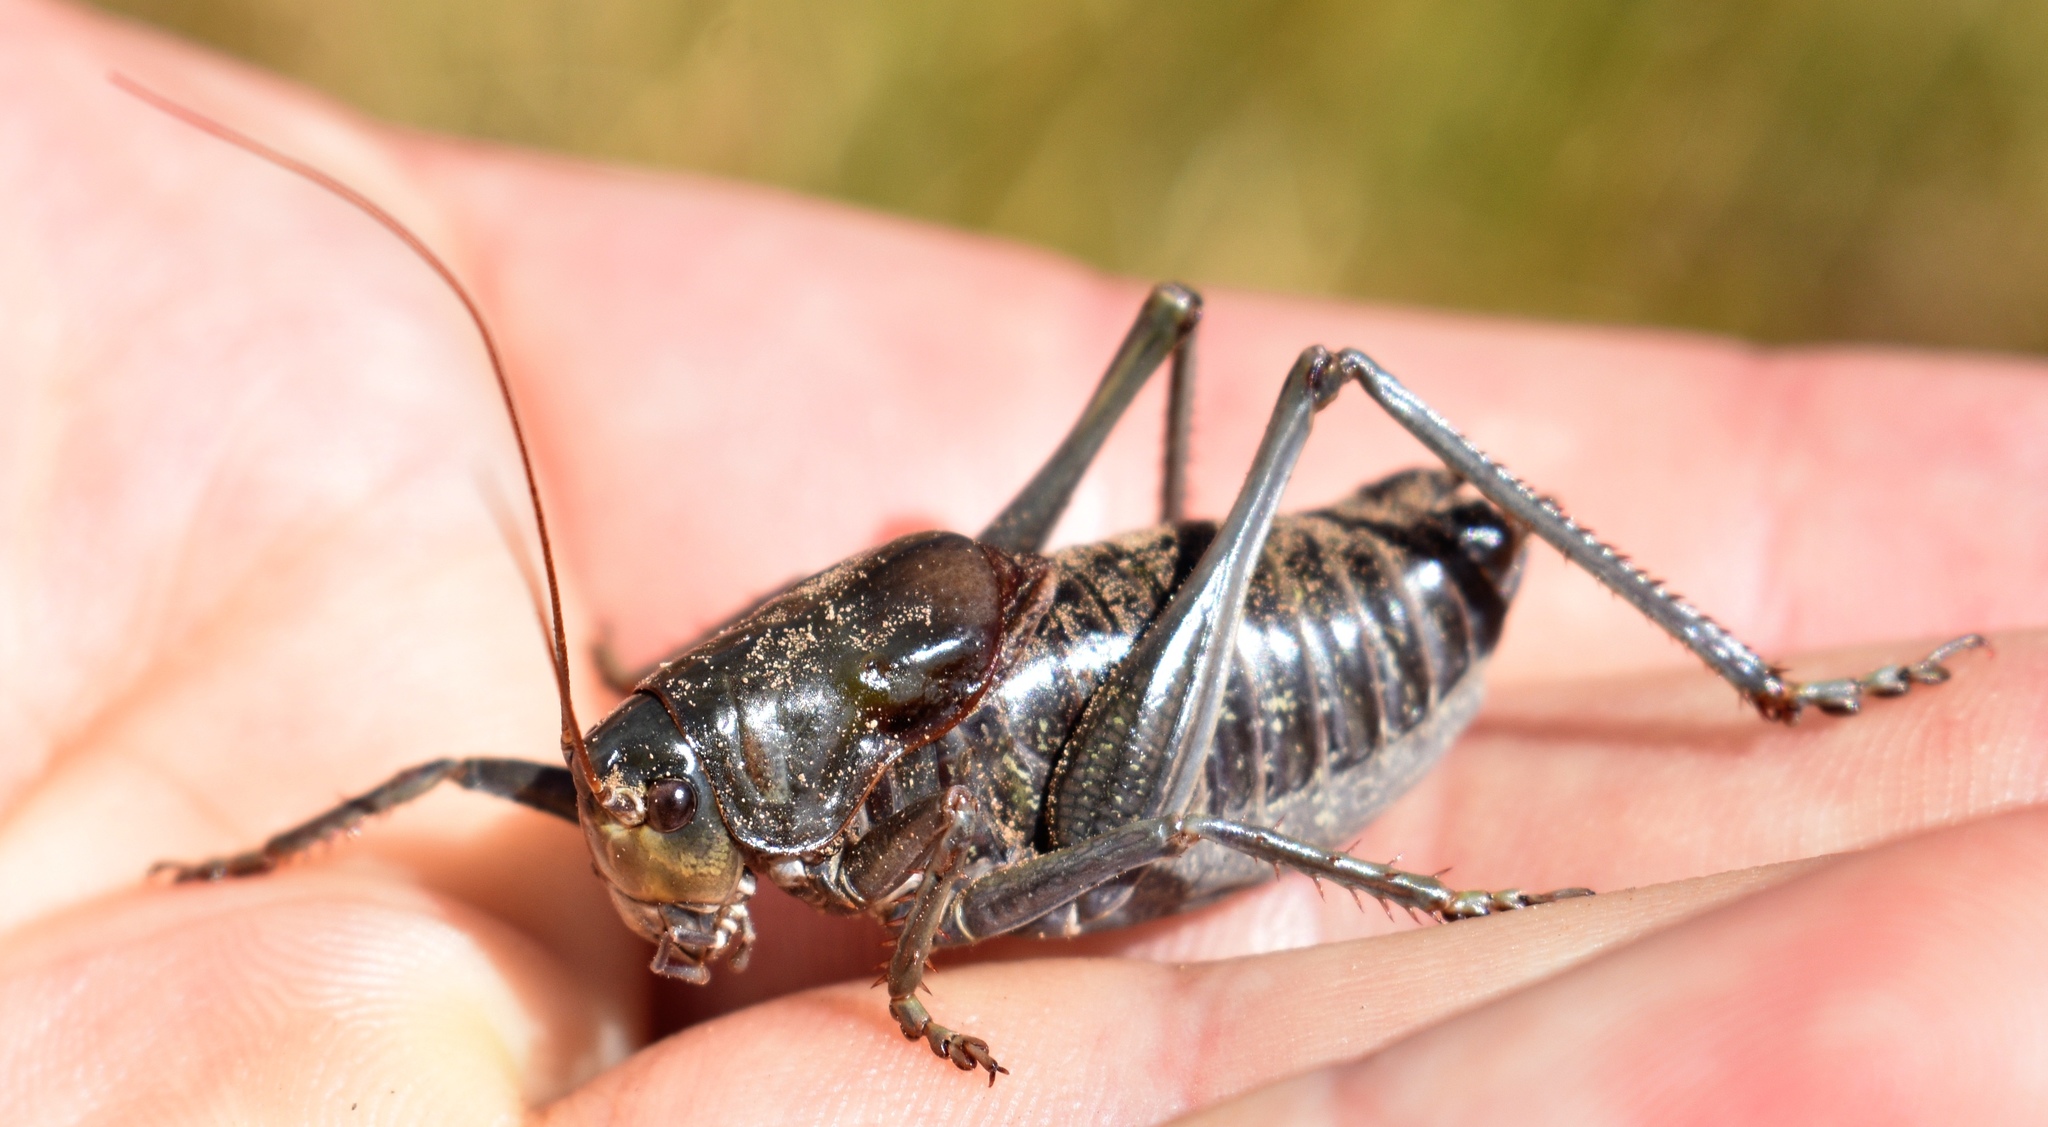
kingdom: Animalia
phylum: Arthropoda
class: Insecta
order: Orthoptera
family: Tettigoniidae
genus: Anabrus
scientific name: Anabrus simplex
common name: Mormon cricket
